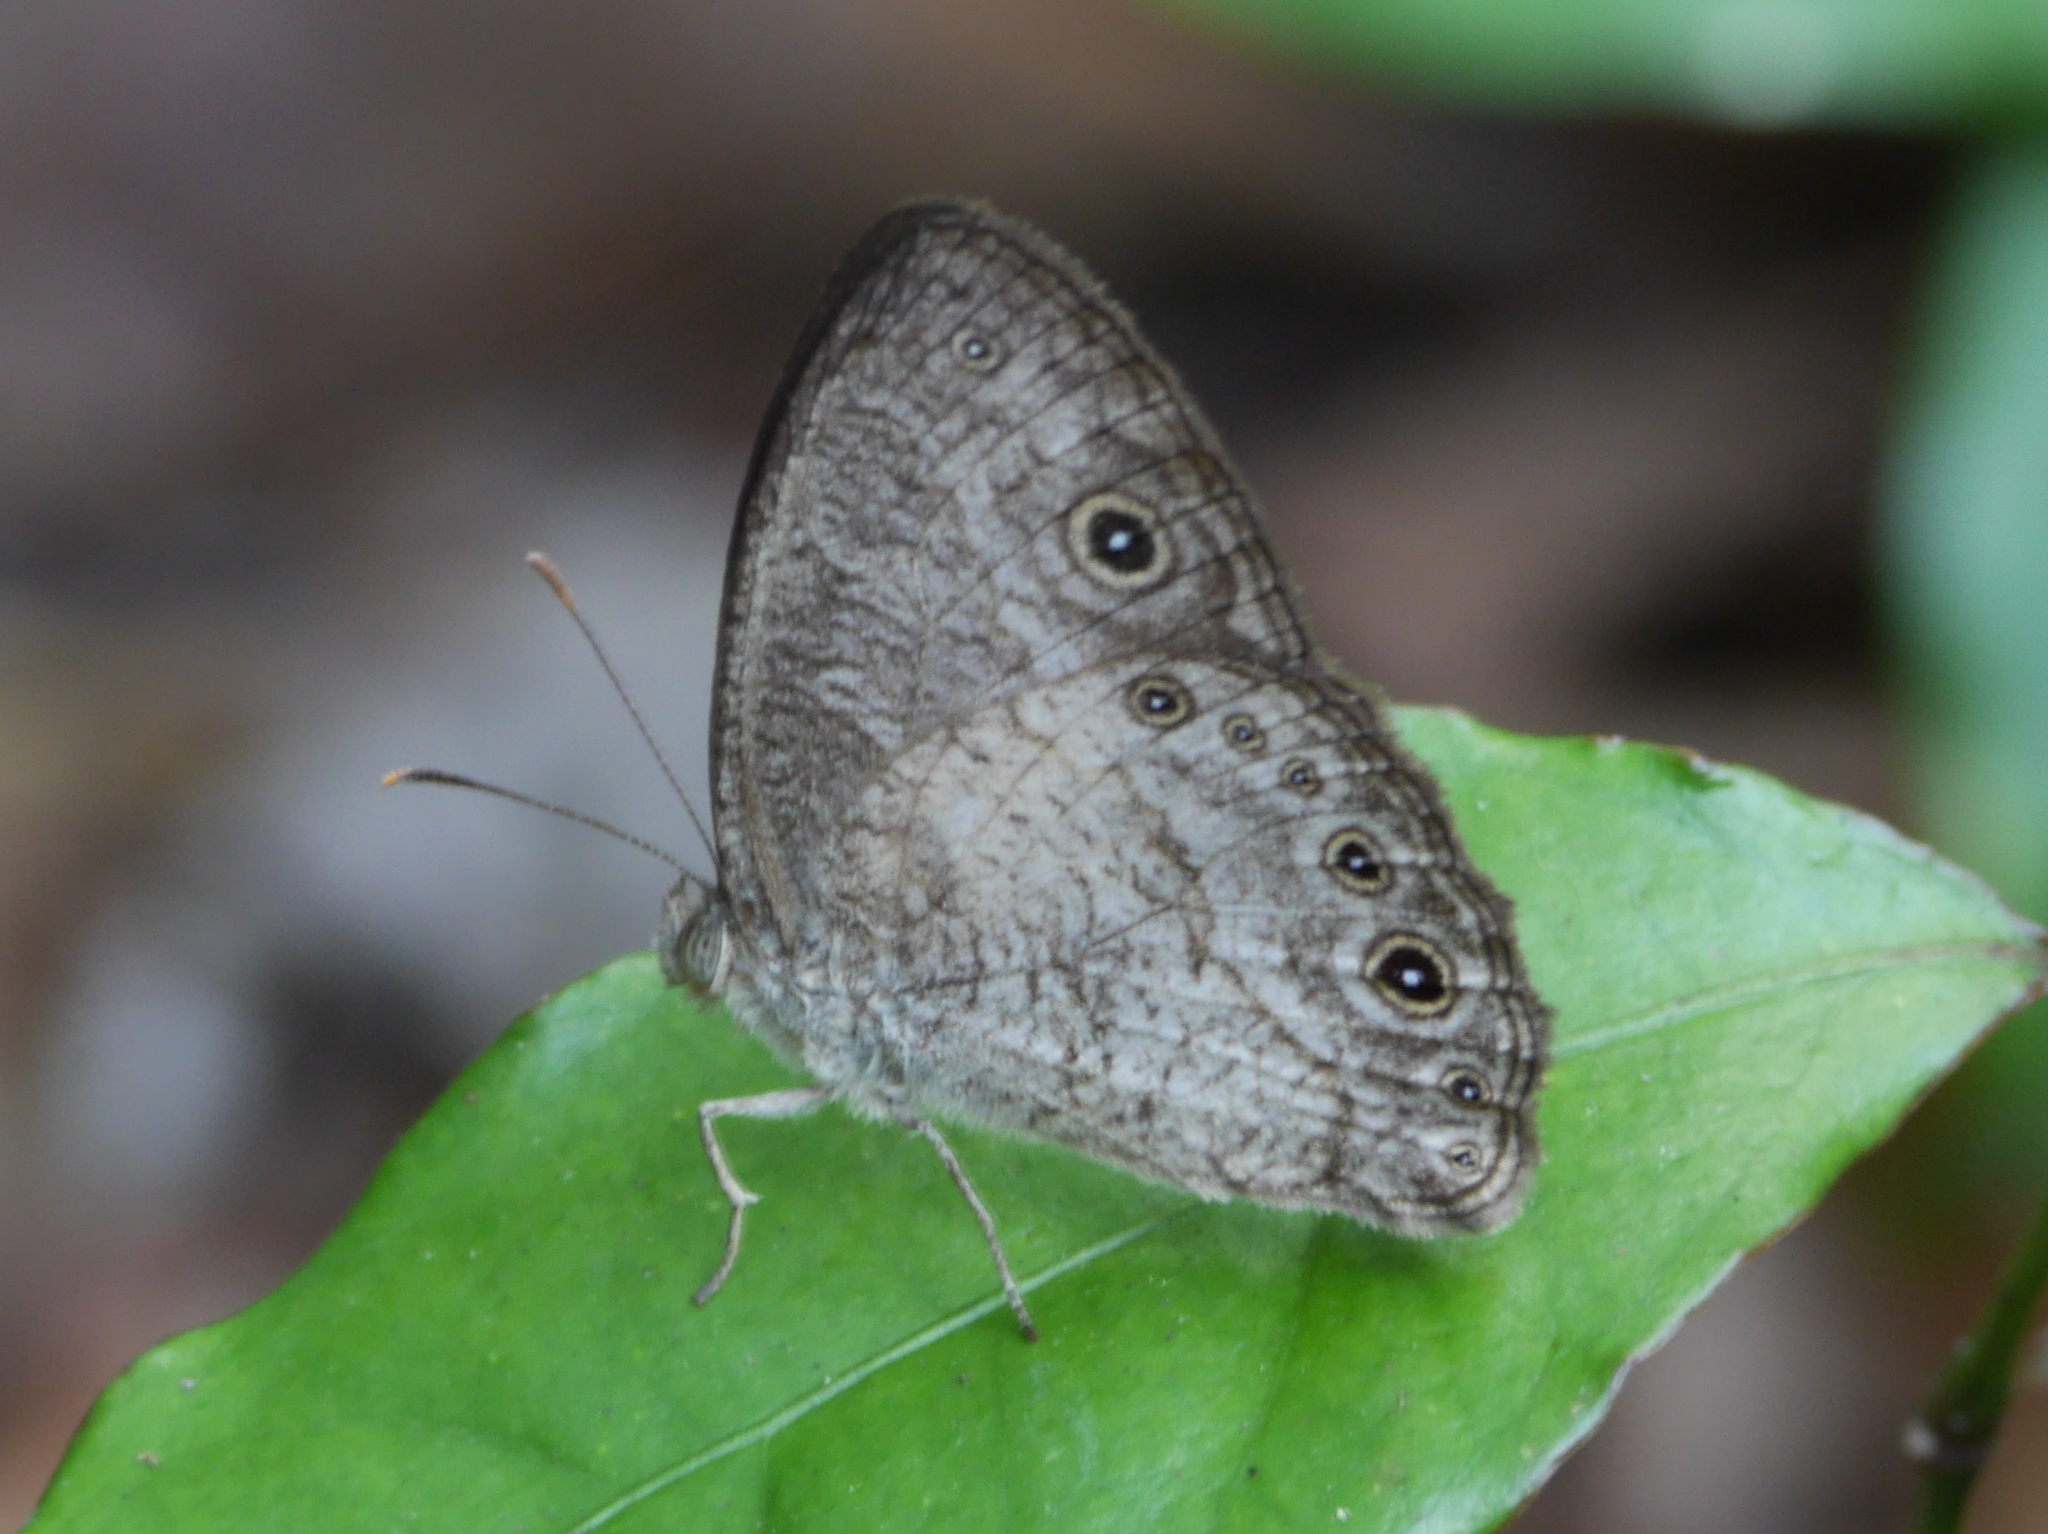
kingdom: Animalia
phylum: Arthropoda
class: Insecta
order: Lepidoptera
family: Nymphalidae
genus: Bicyclus
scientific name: Bicyclus dorothea
